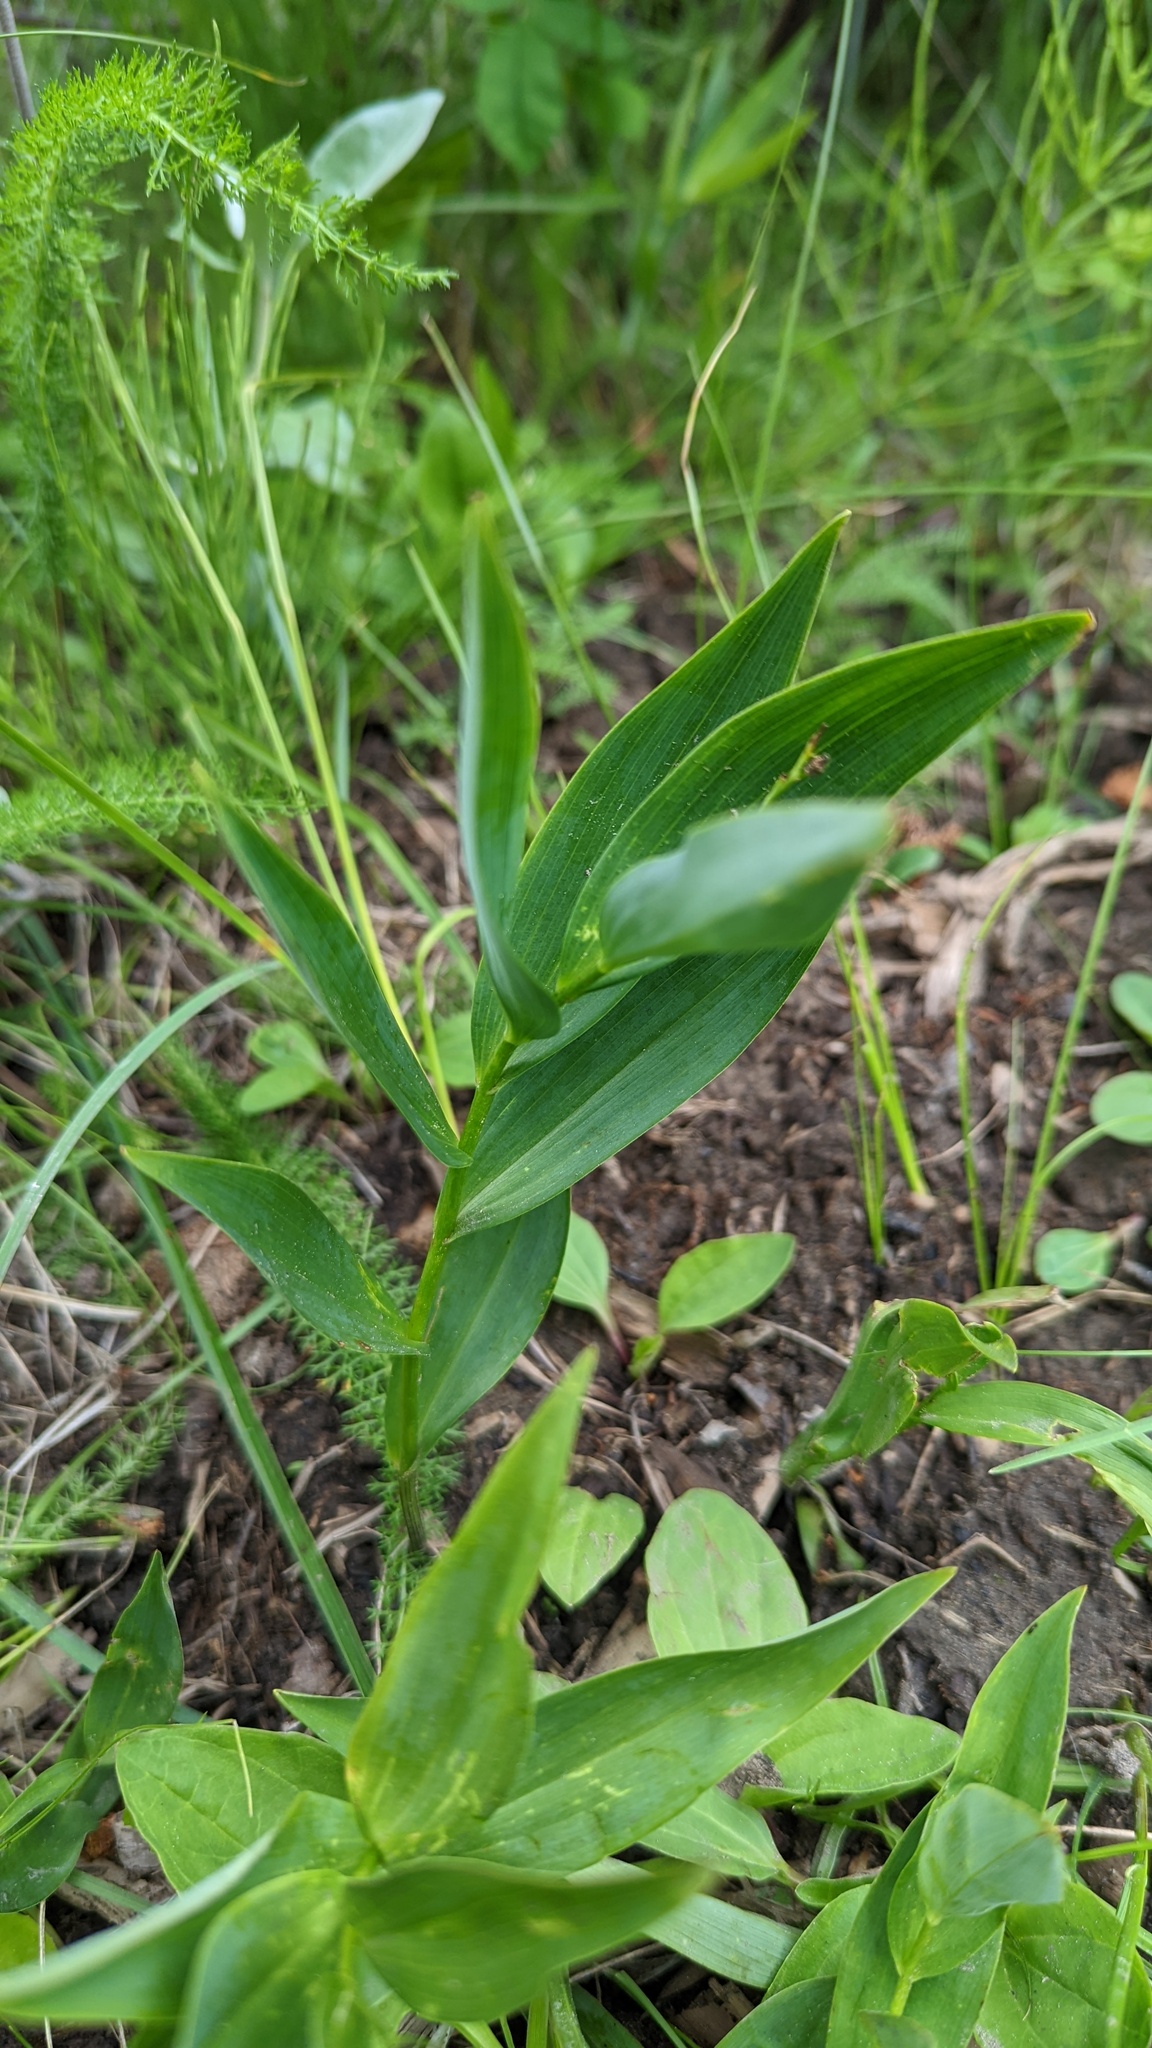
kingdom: Plantae
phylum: Tracheophyta
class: Liliopsida
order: Asparagales
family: Asparagaceae
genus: Maianthemum
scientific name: Maianthemum stellatum
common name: Little false solomon's seal
